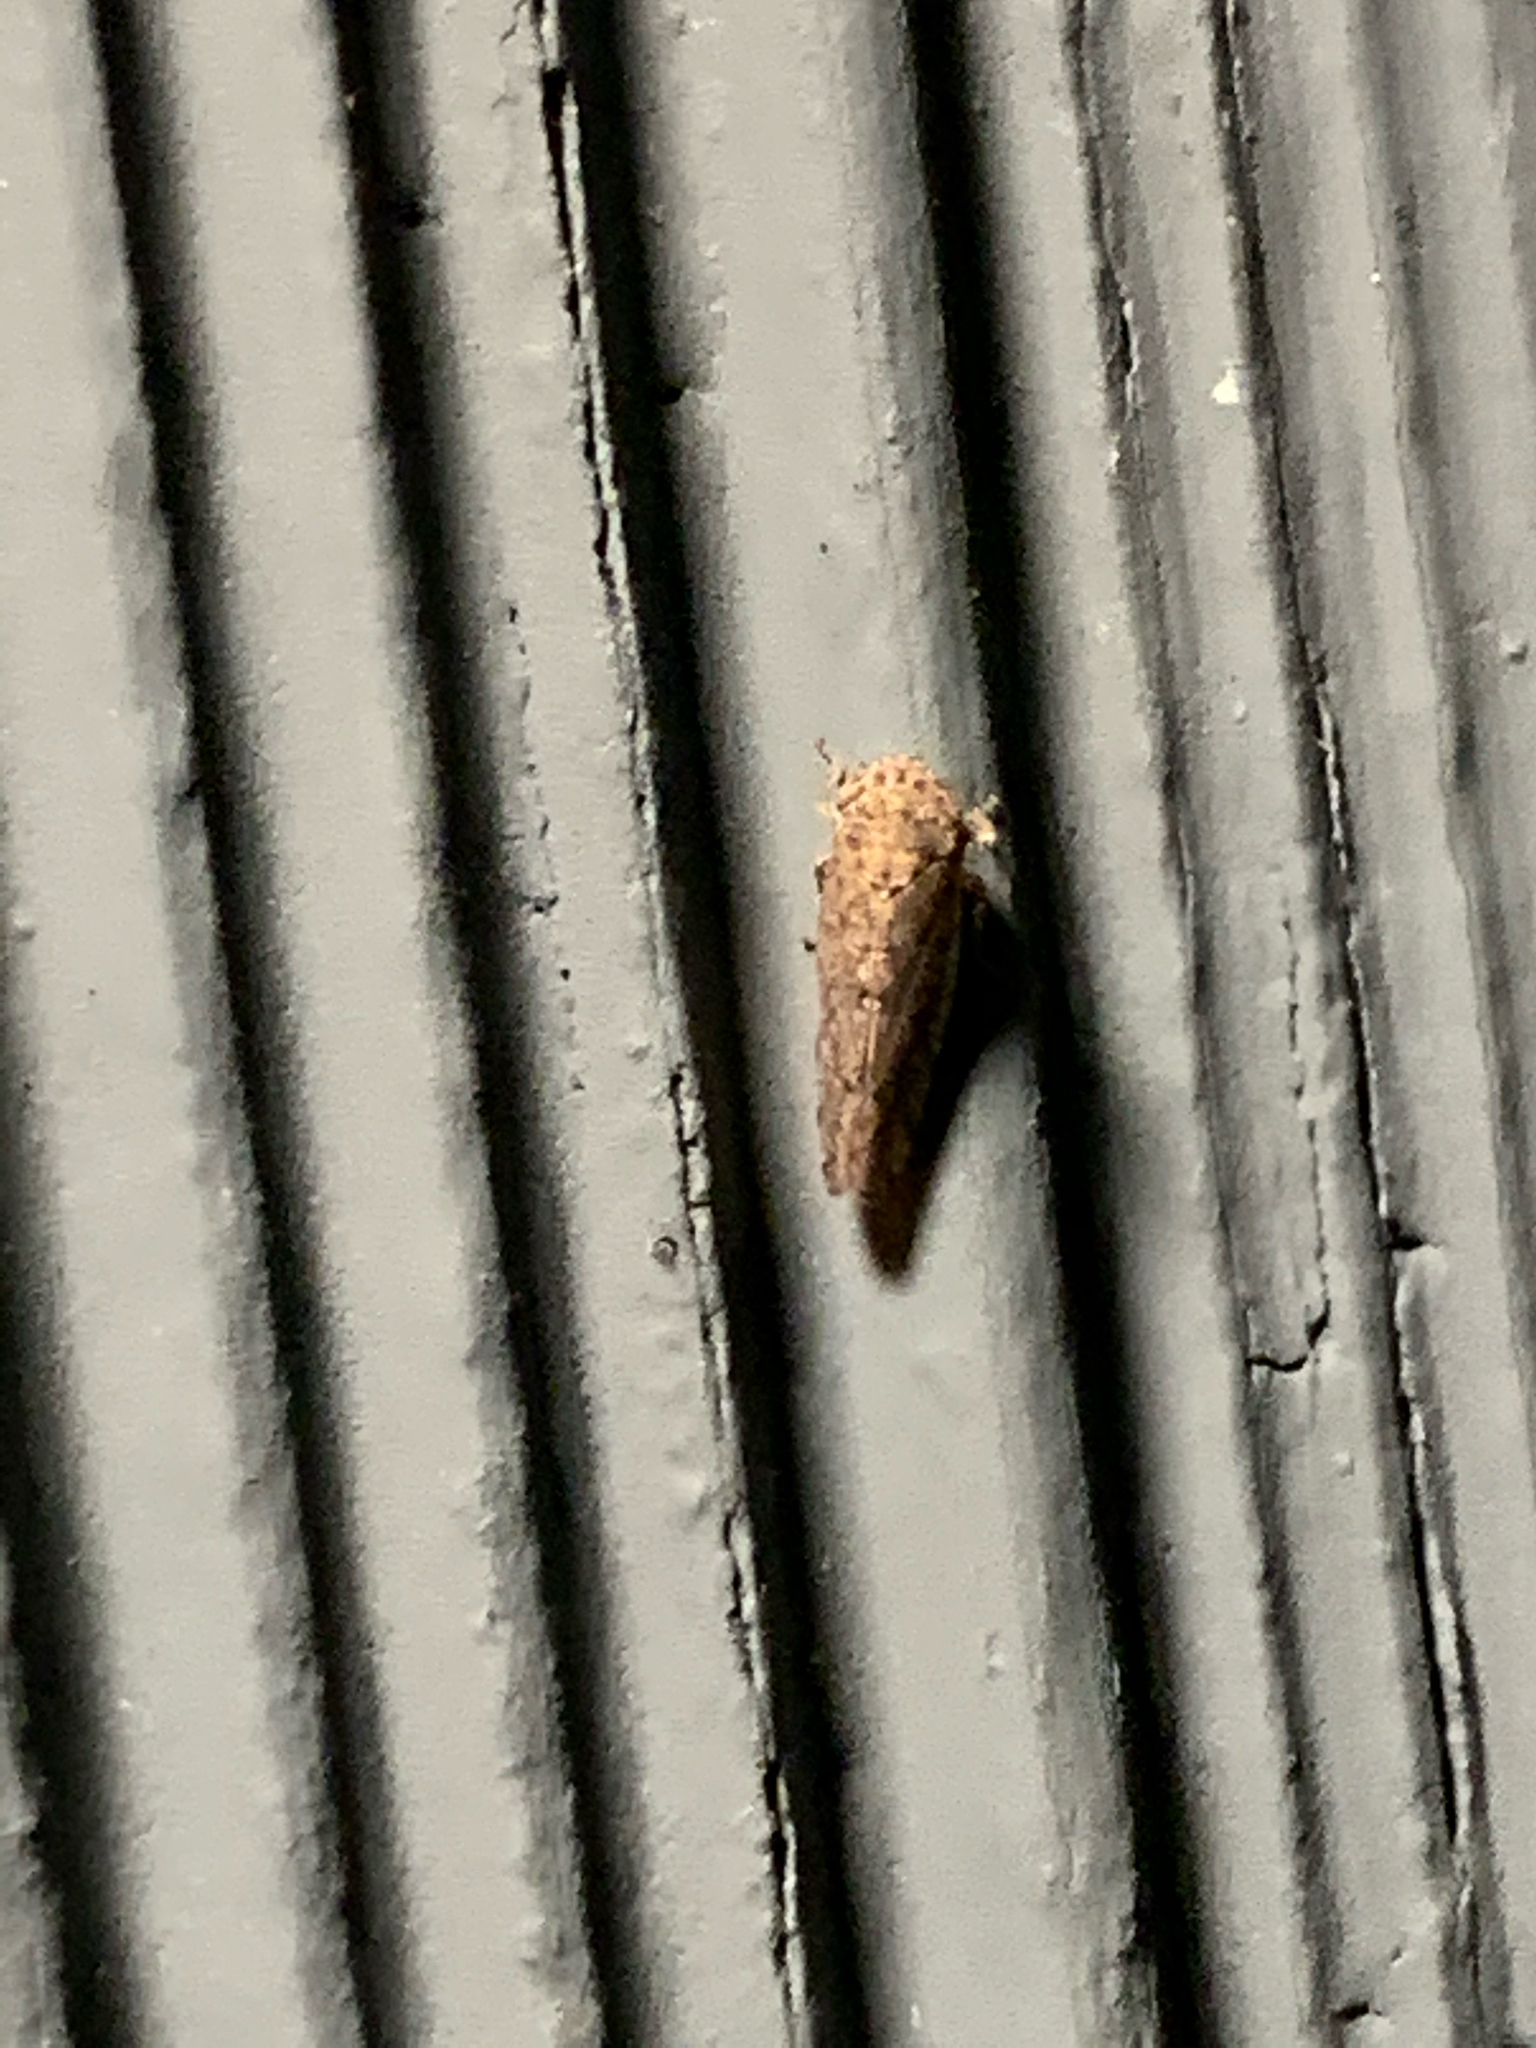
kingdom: Animalia
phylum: Arthropoda
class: Insecta
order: Hemiptera
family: Cicadellidae
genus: Paraphlepsius
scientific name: Paraphlepsius
